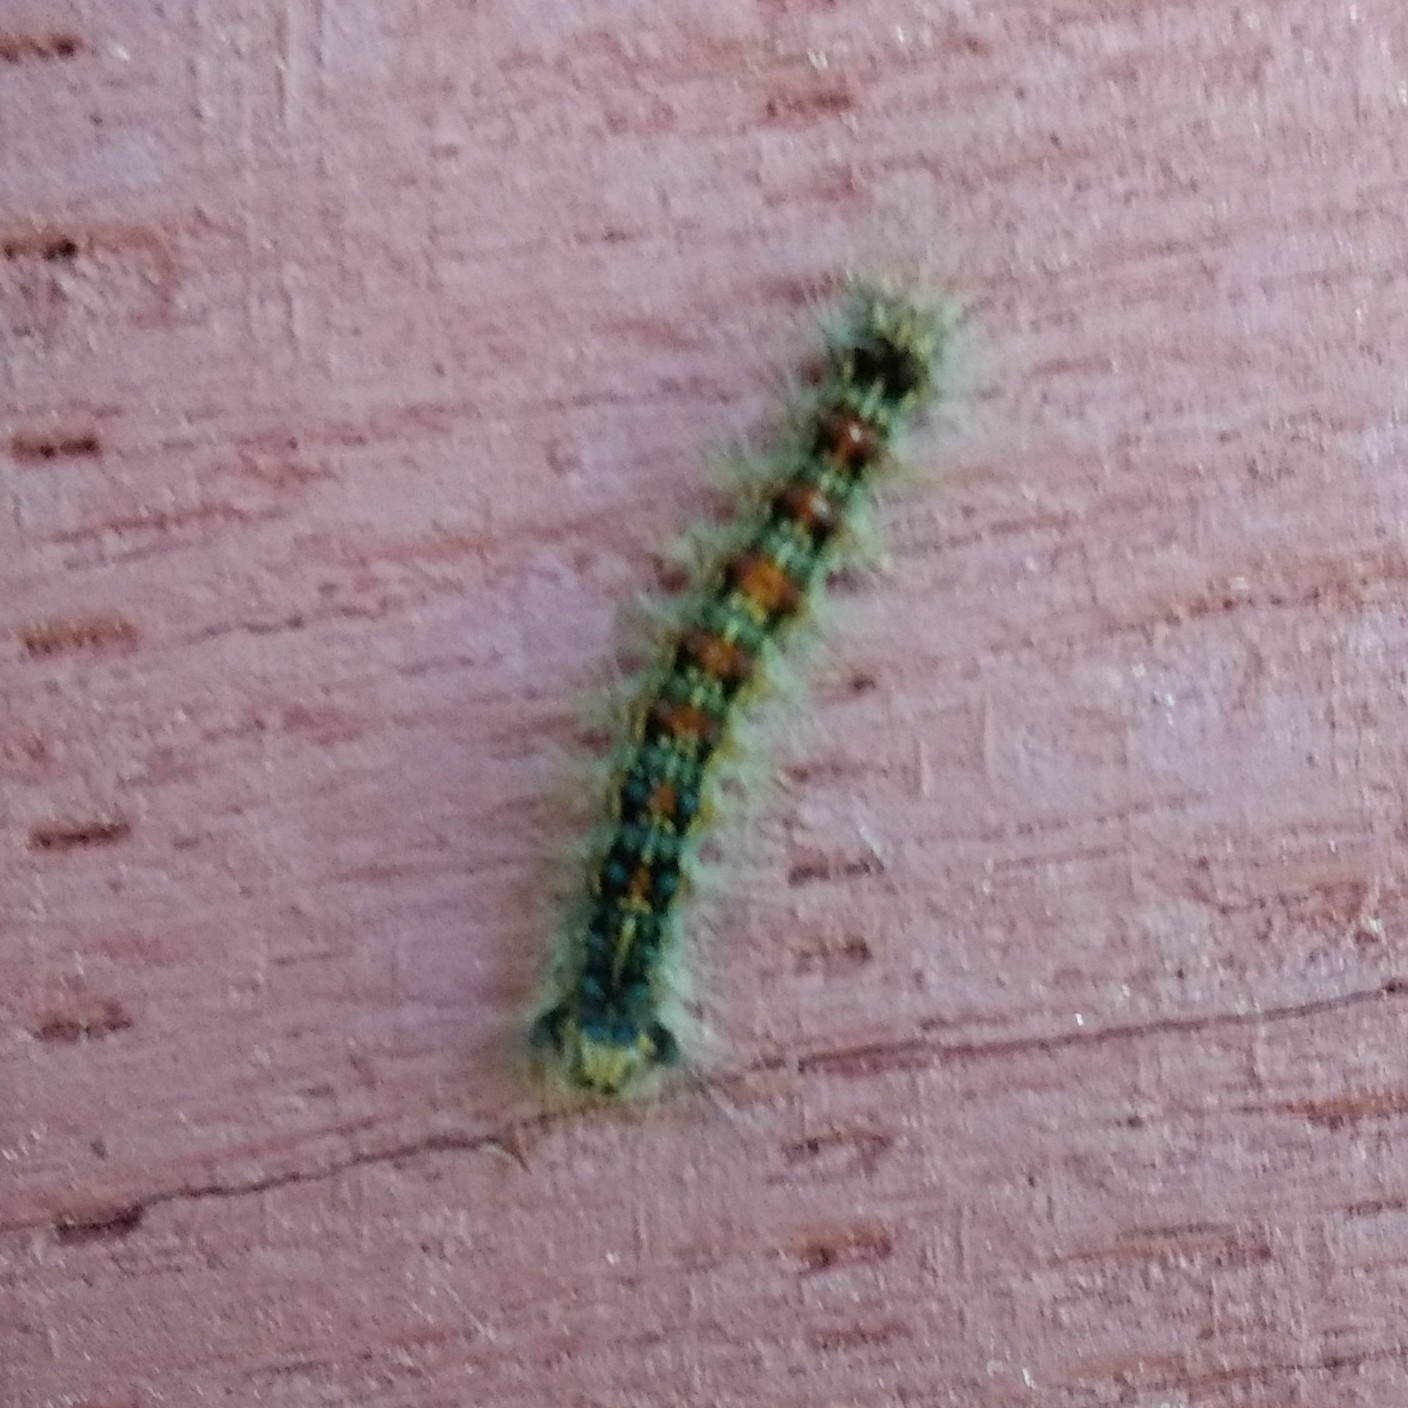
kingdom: Animalia
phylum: Arthropoda
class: Insecta
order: Lepidoptera
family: Erebidae
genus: Lymantria
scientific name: Lymantria dispar
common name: Gypsy moth
